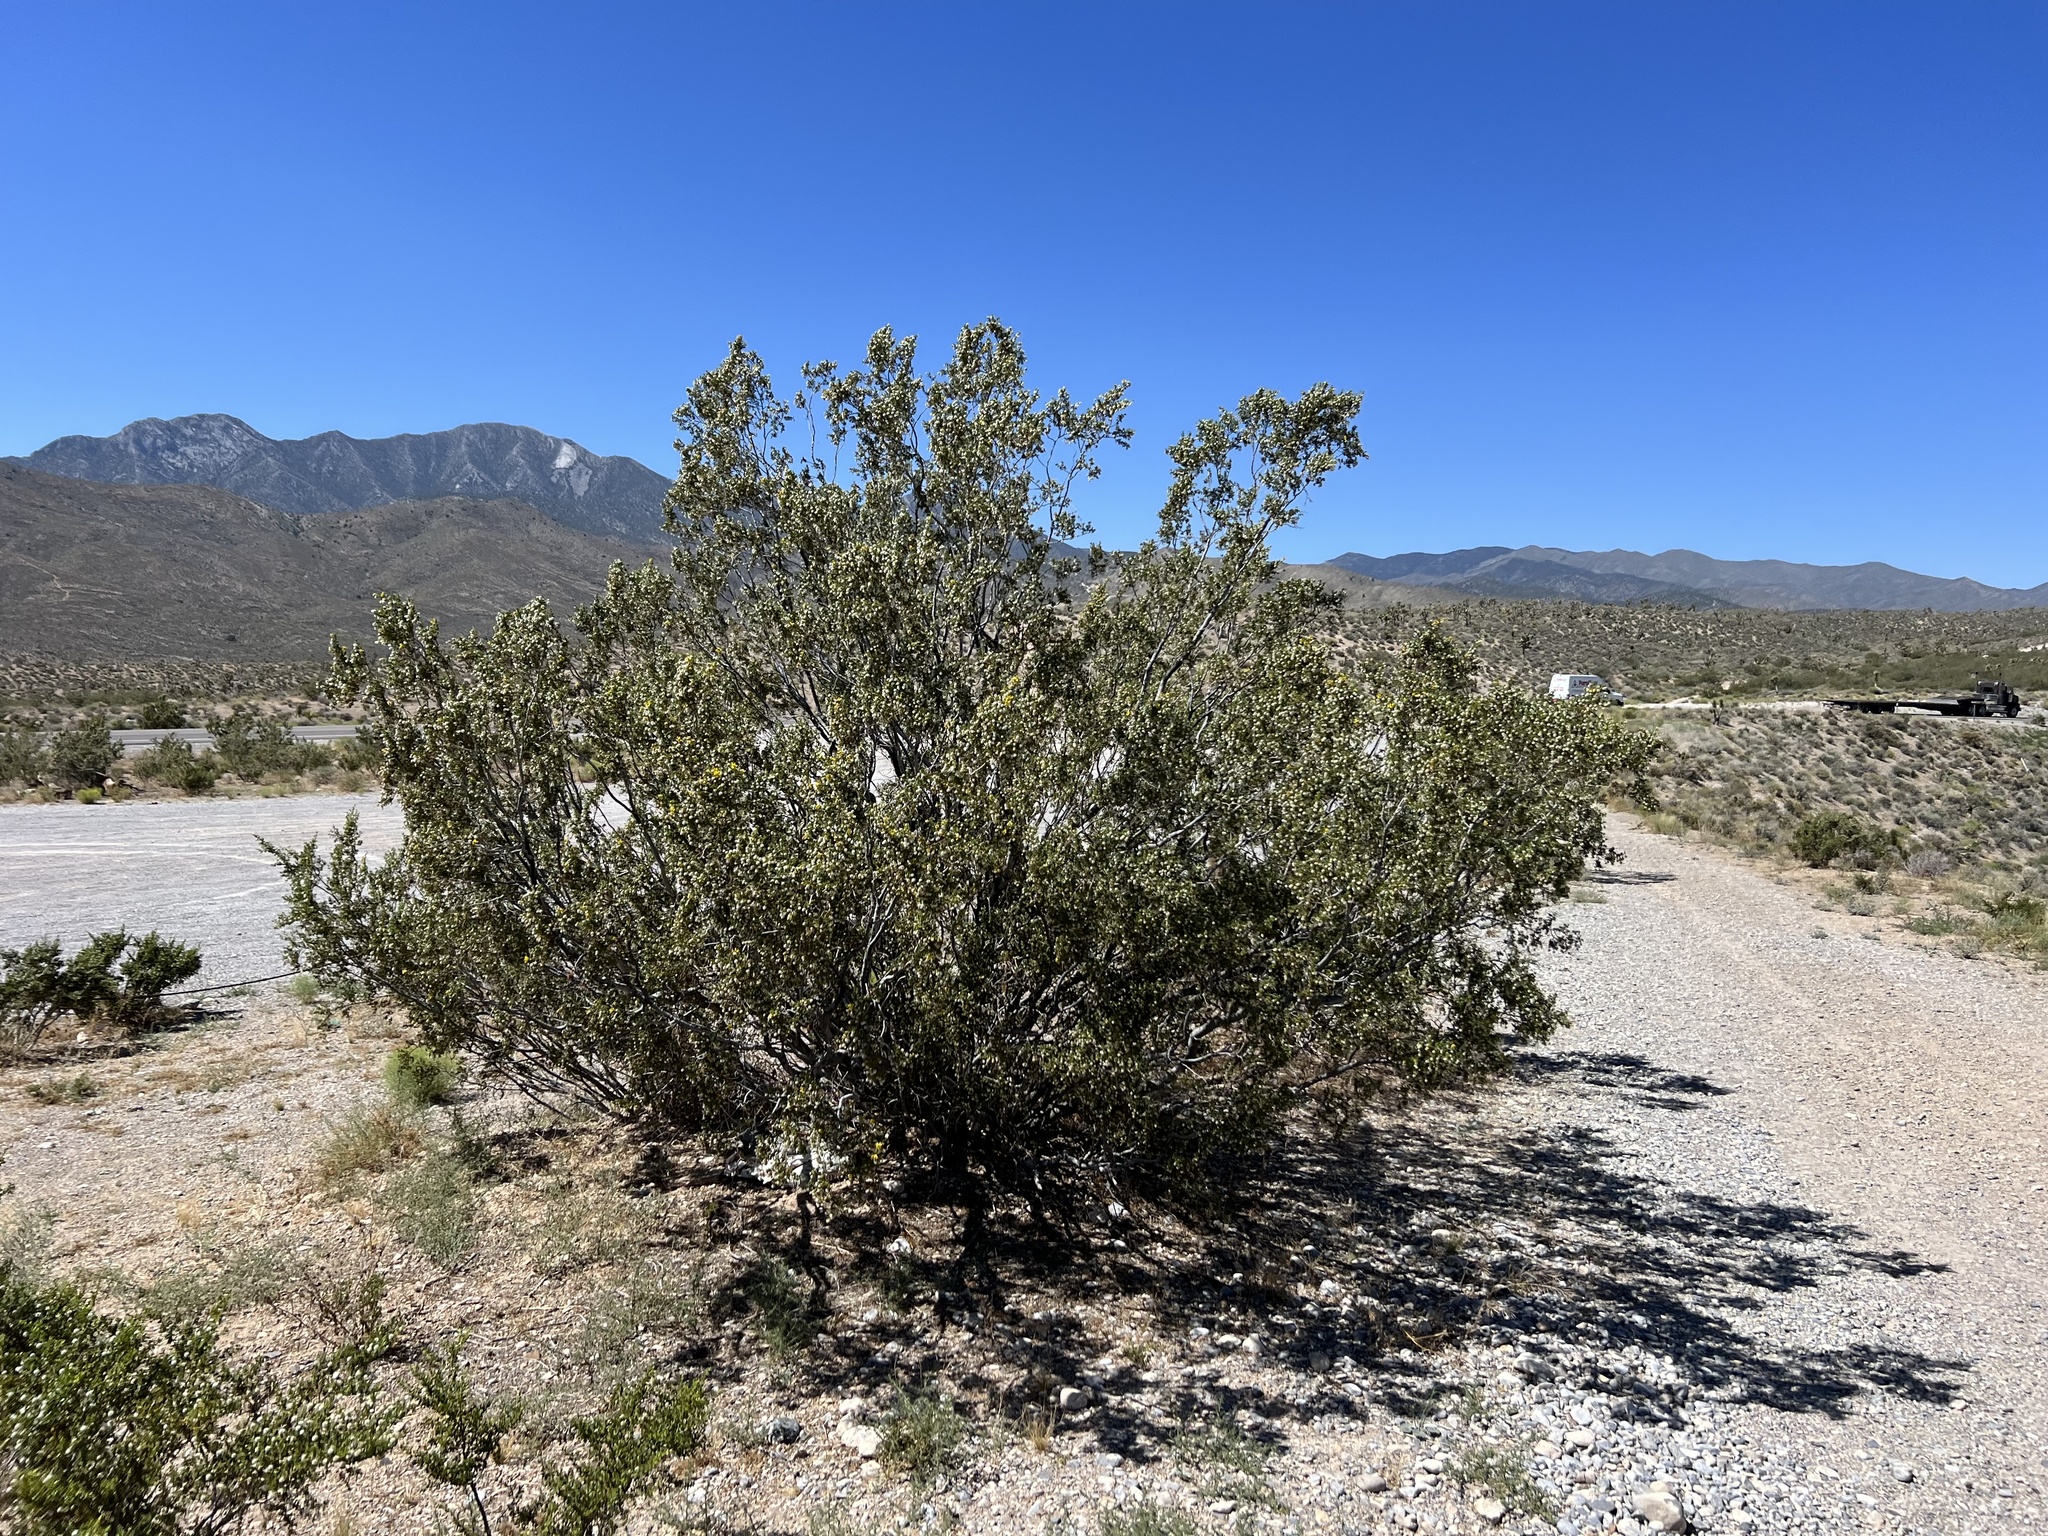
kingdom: Plantae
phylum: Tracheophyta
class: Magnoliopsida
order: Zygophyllales
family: Zygophyllaceae
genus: Larrea
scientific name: Larrea tridentata
